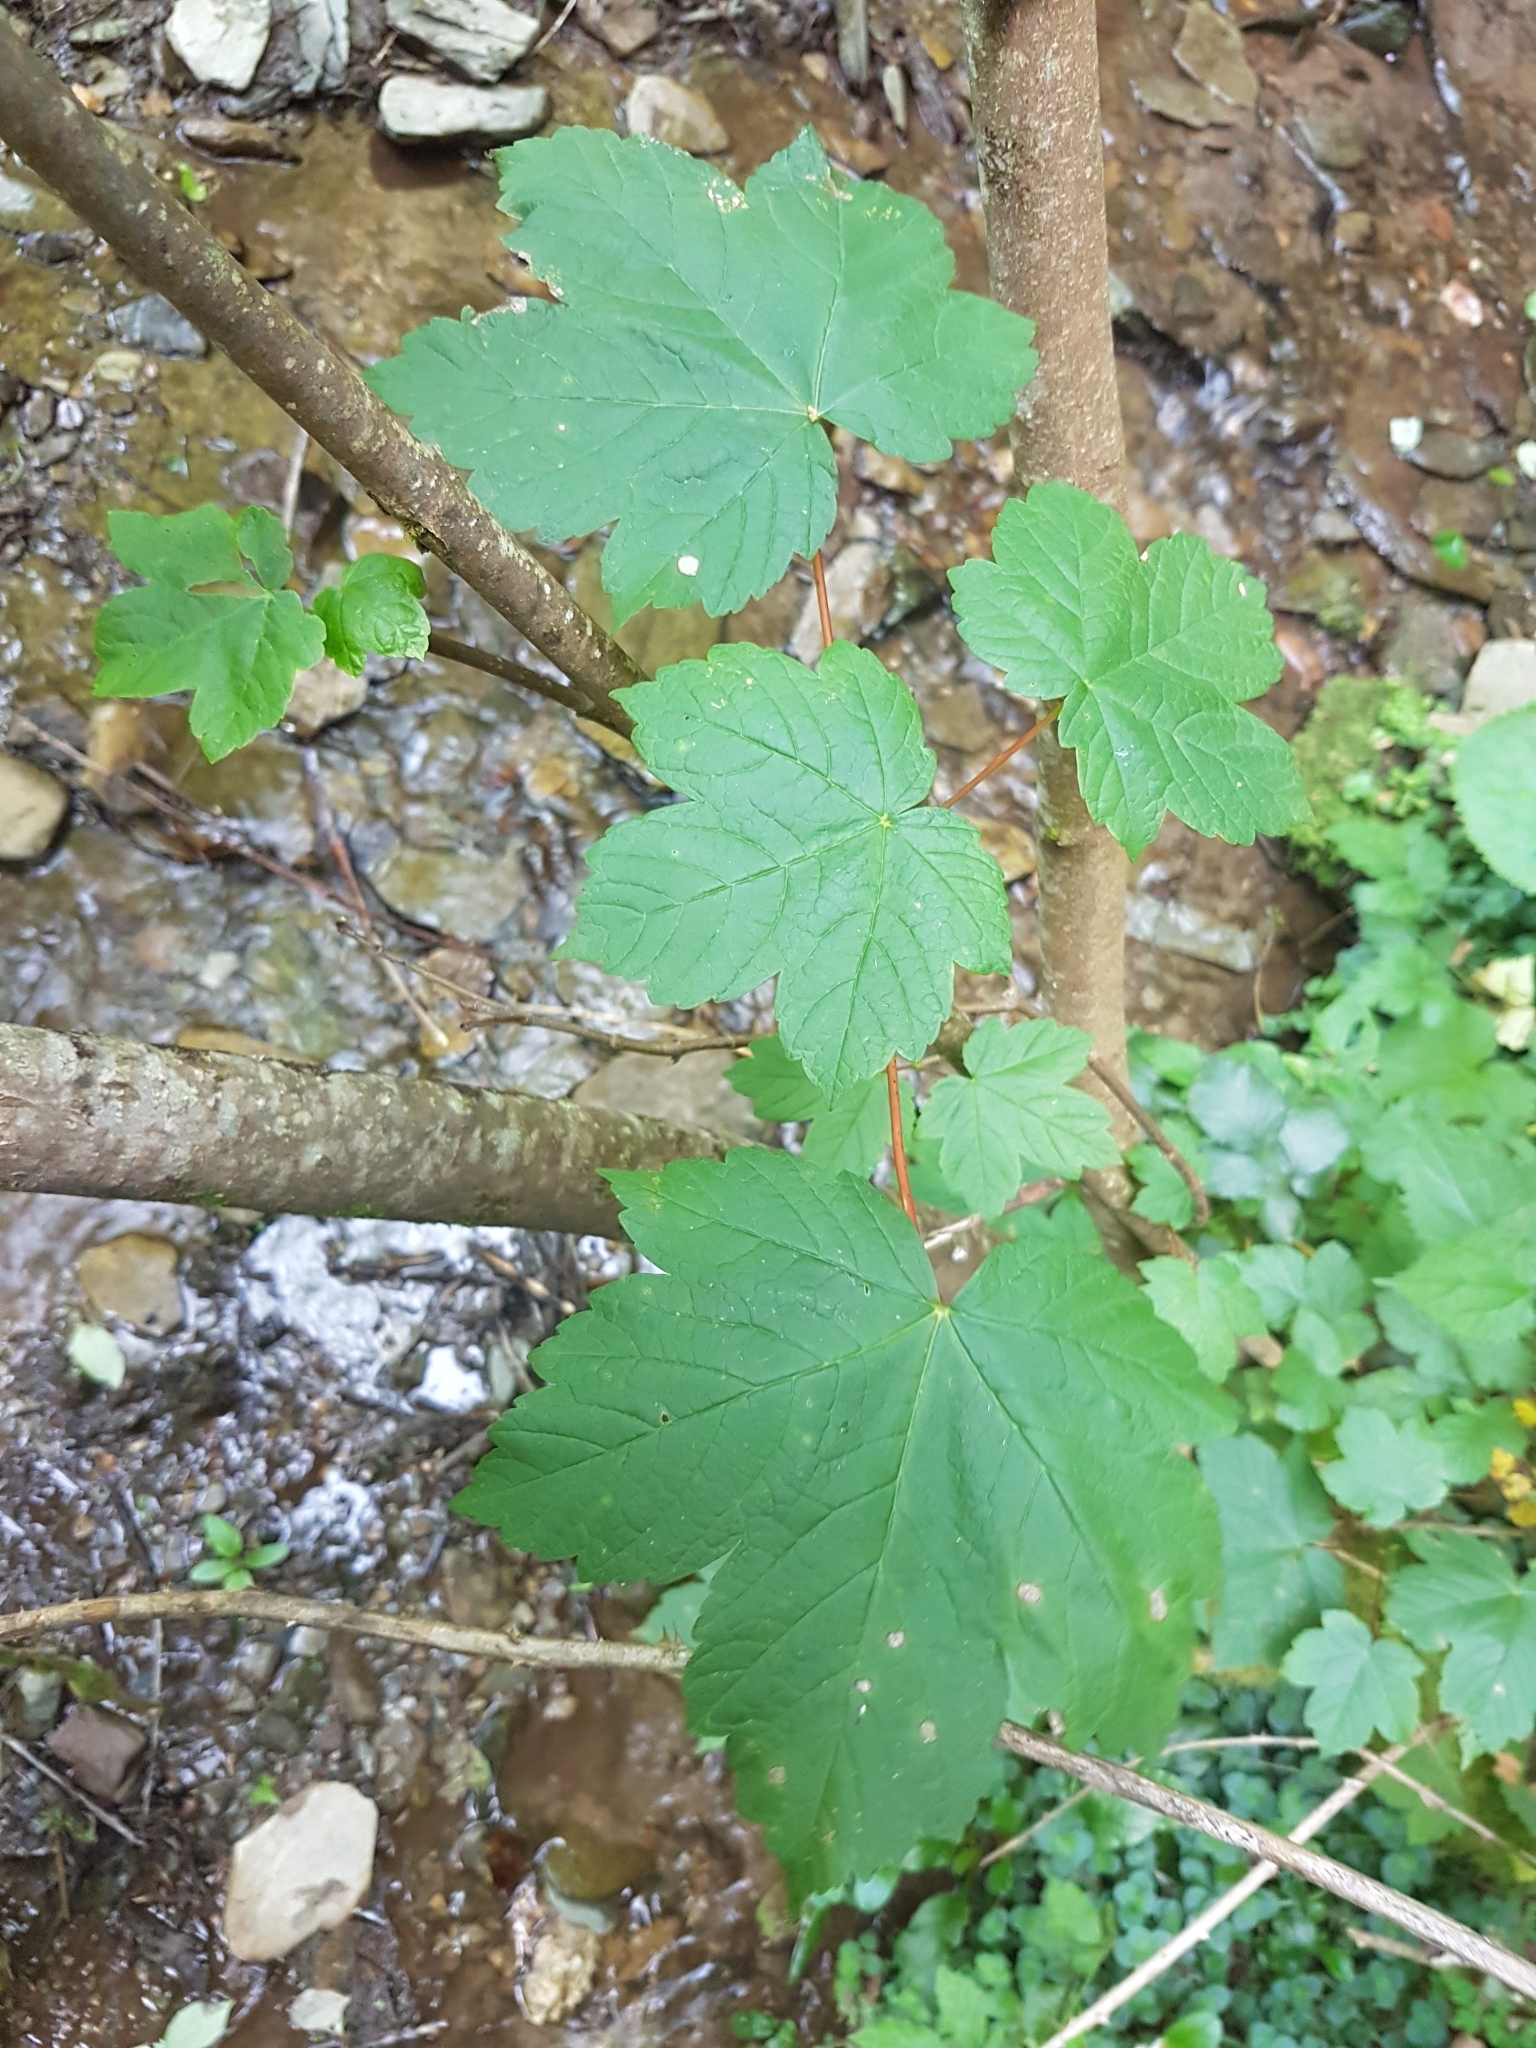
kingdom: Plantae
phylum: Tracheophyta
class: Magnoliopsida
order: Sapindales
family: Sapindaceae
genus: Acer
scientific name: Acer pseudoplatanus
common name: Sycamore
